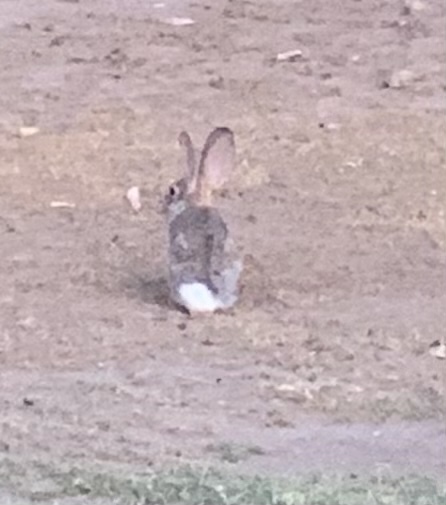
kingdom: Animalia
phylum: Chordata
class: Mammalia
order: Lagomorpha
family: Leporidae
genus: Sylvilagus
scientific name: Sylvilagus audubonii
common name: Desert cottontail
